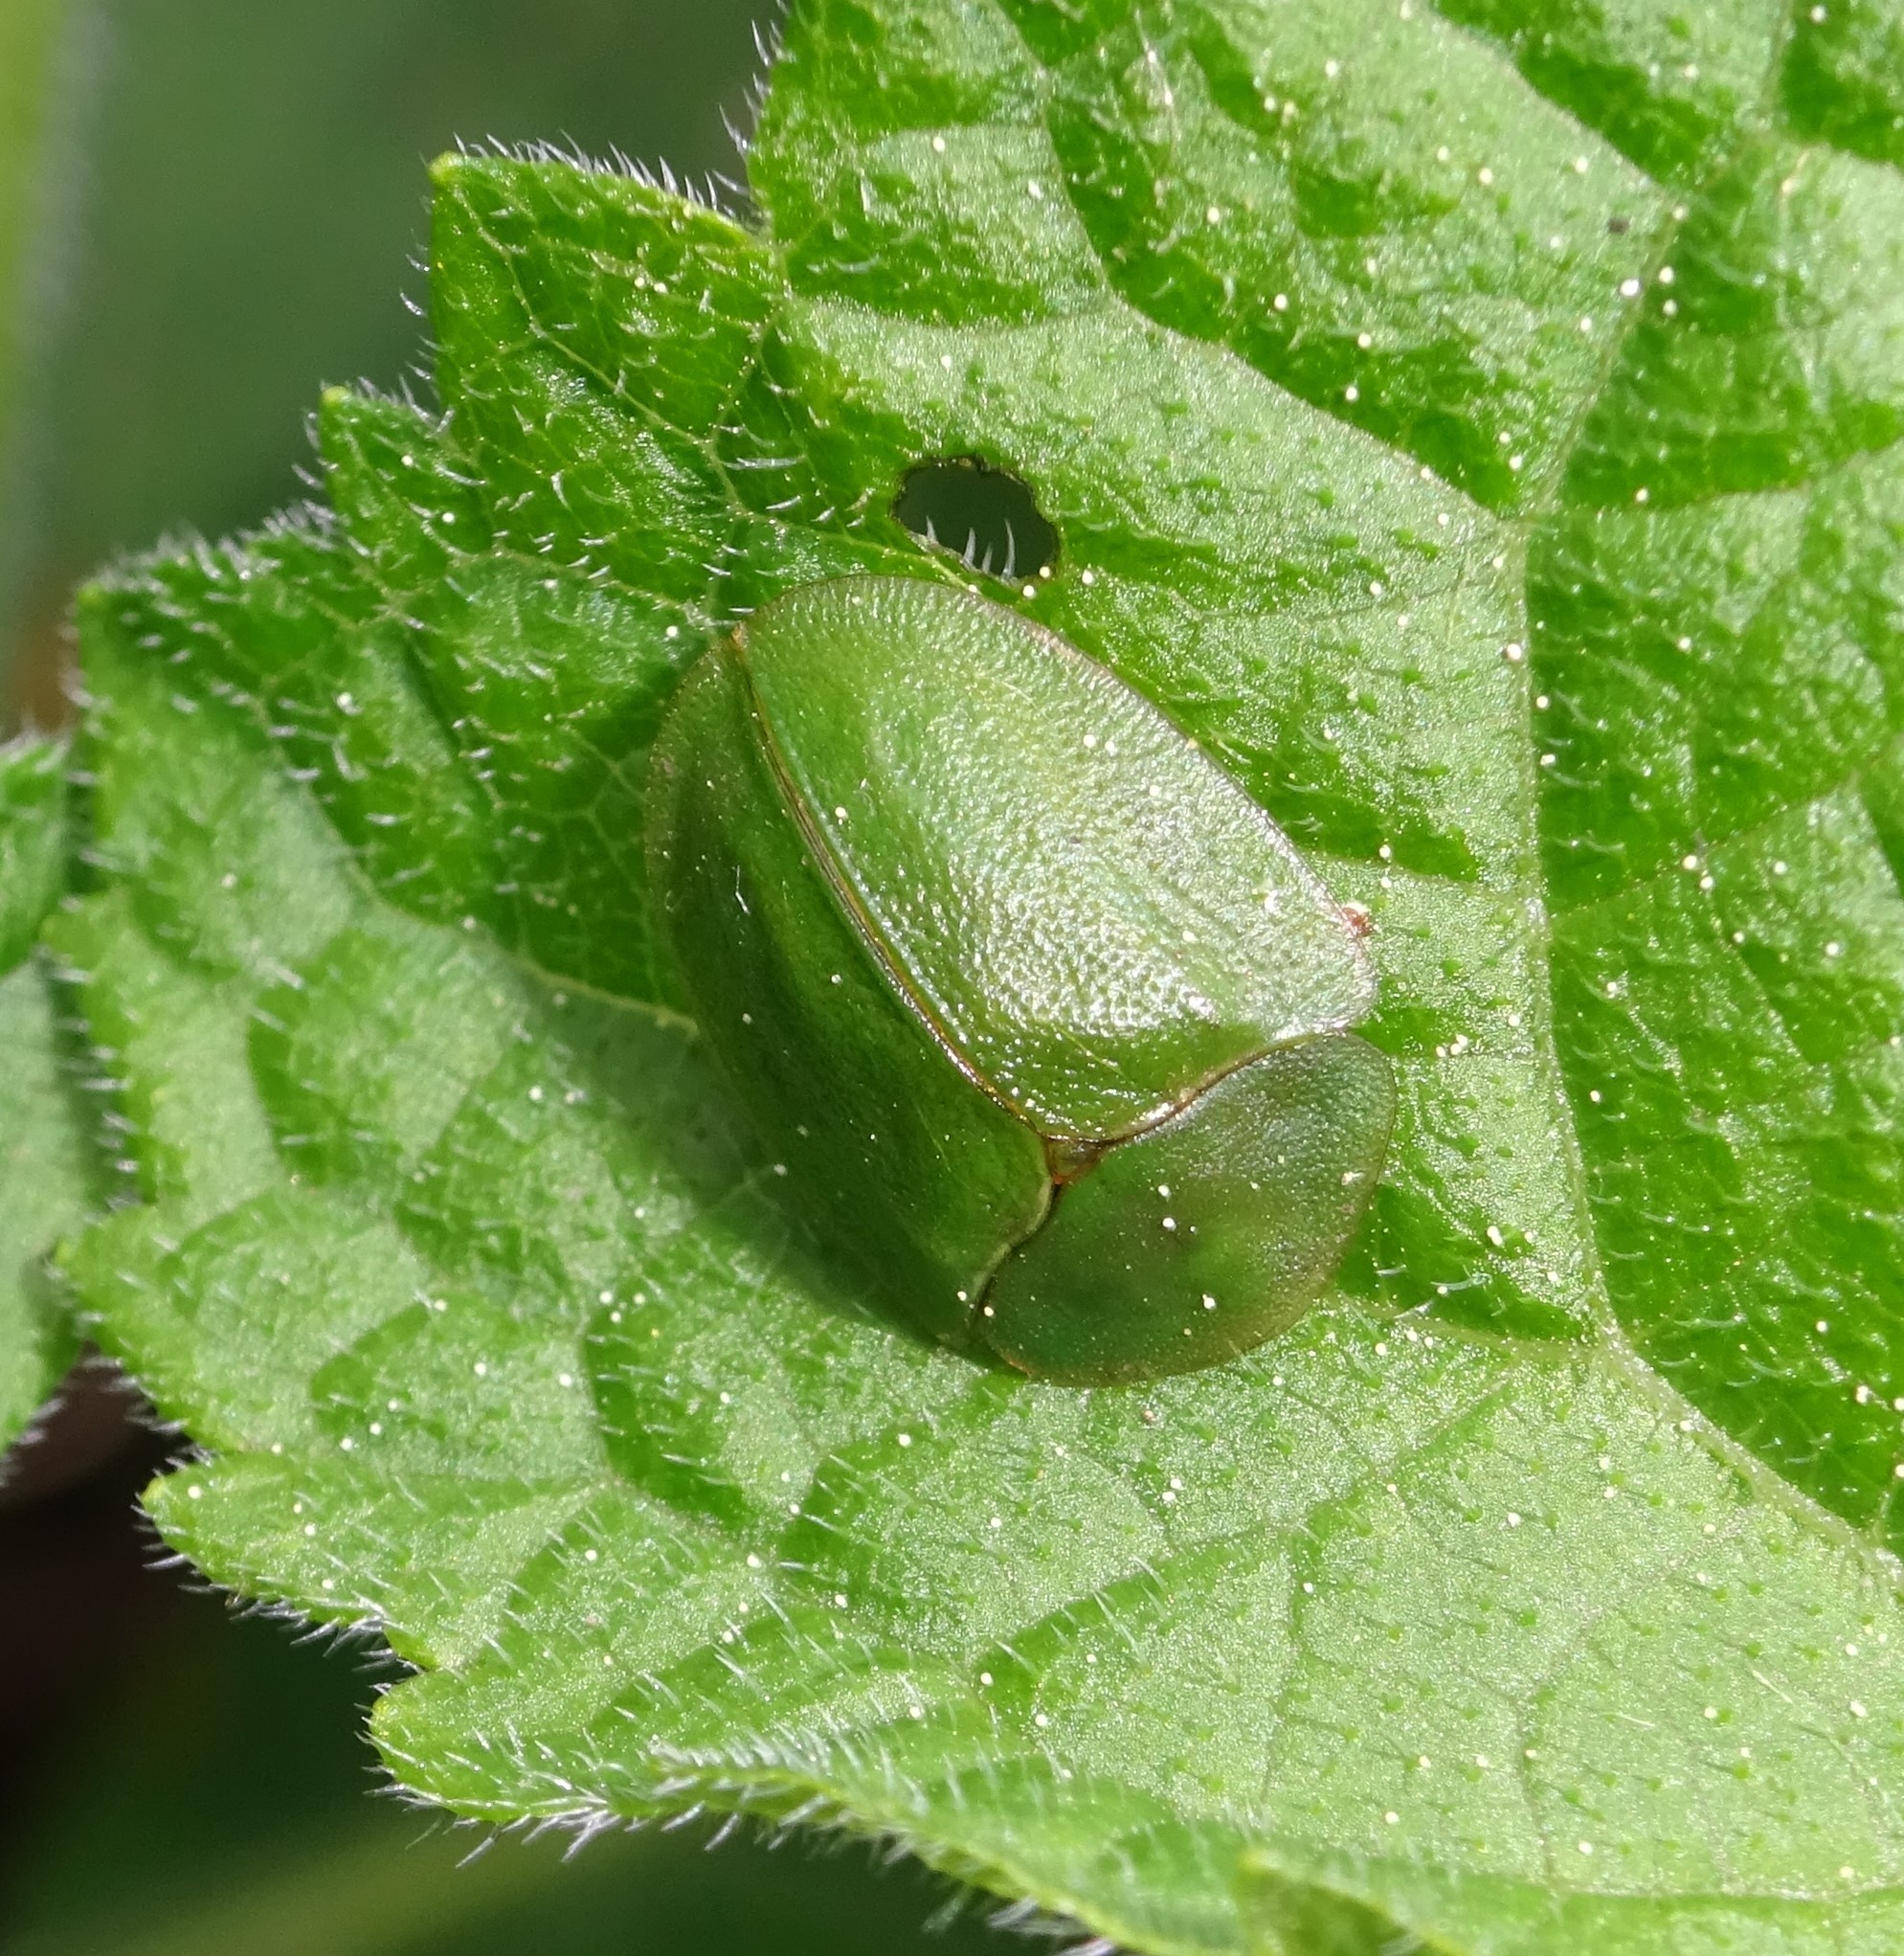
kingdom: Animalia
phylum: Arthropoda
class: Insecta
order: Coleoptera
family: Chrysomelidae
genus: Cassida
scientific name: Cassida viridis
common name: Green tortoise beetle
